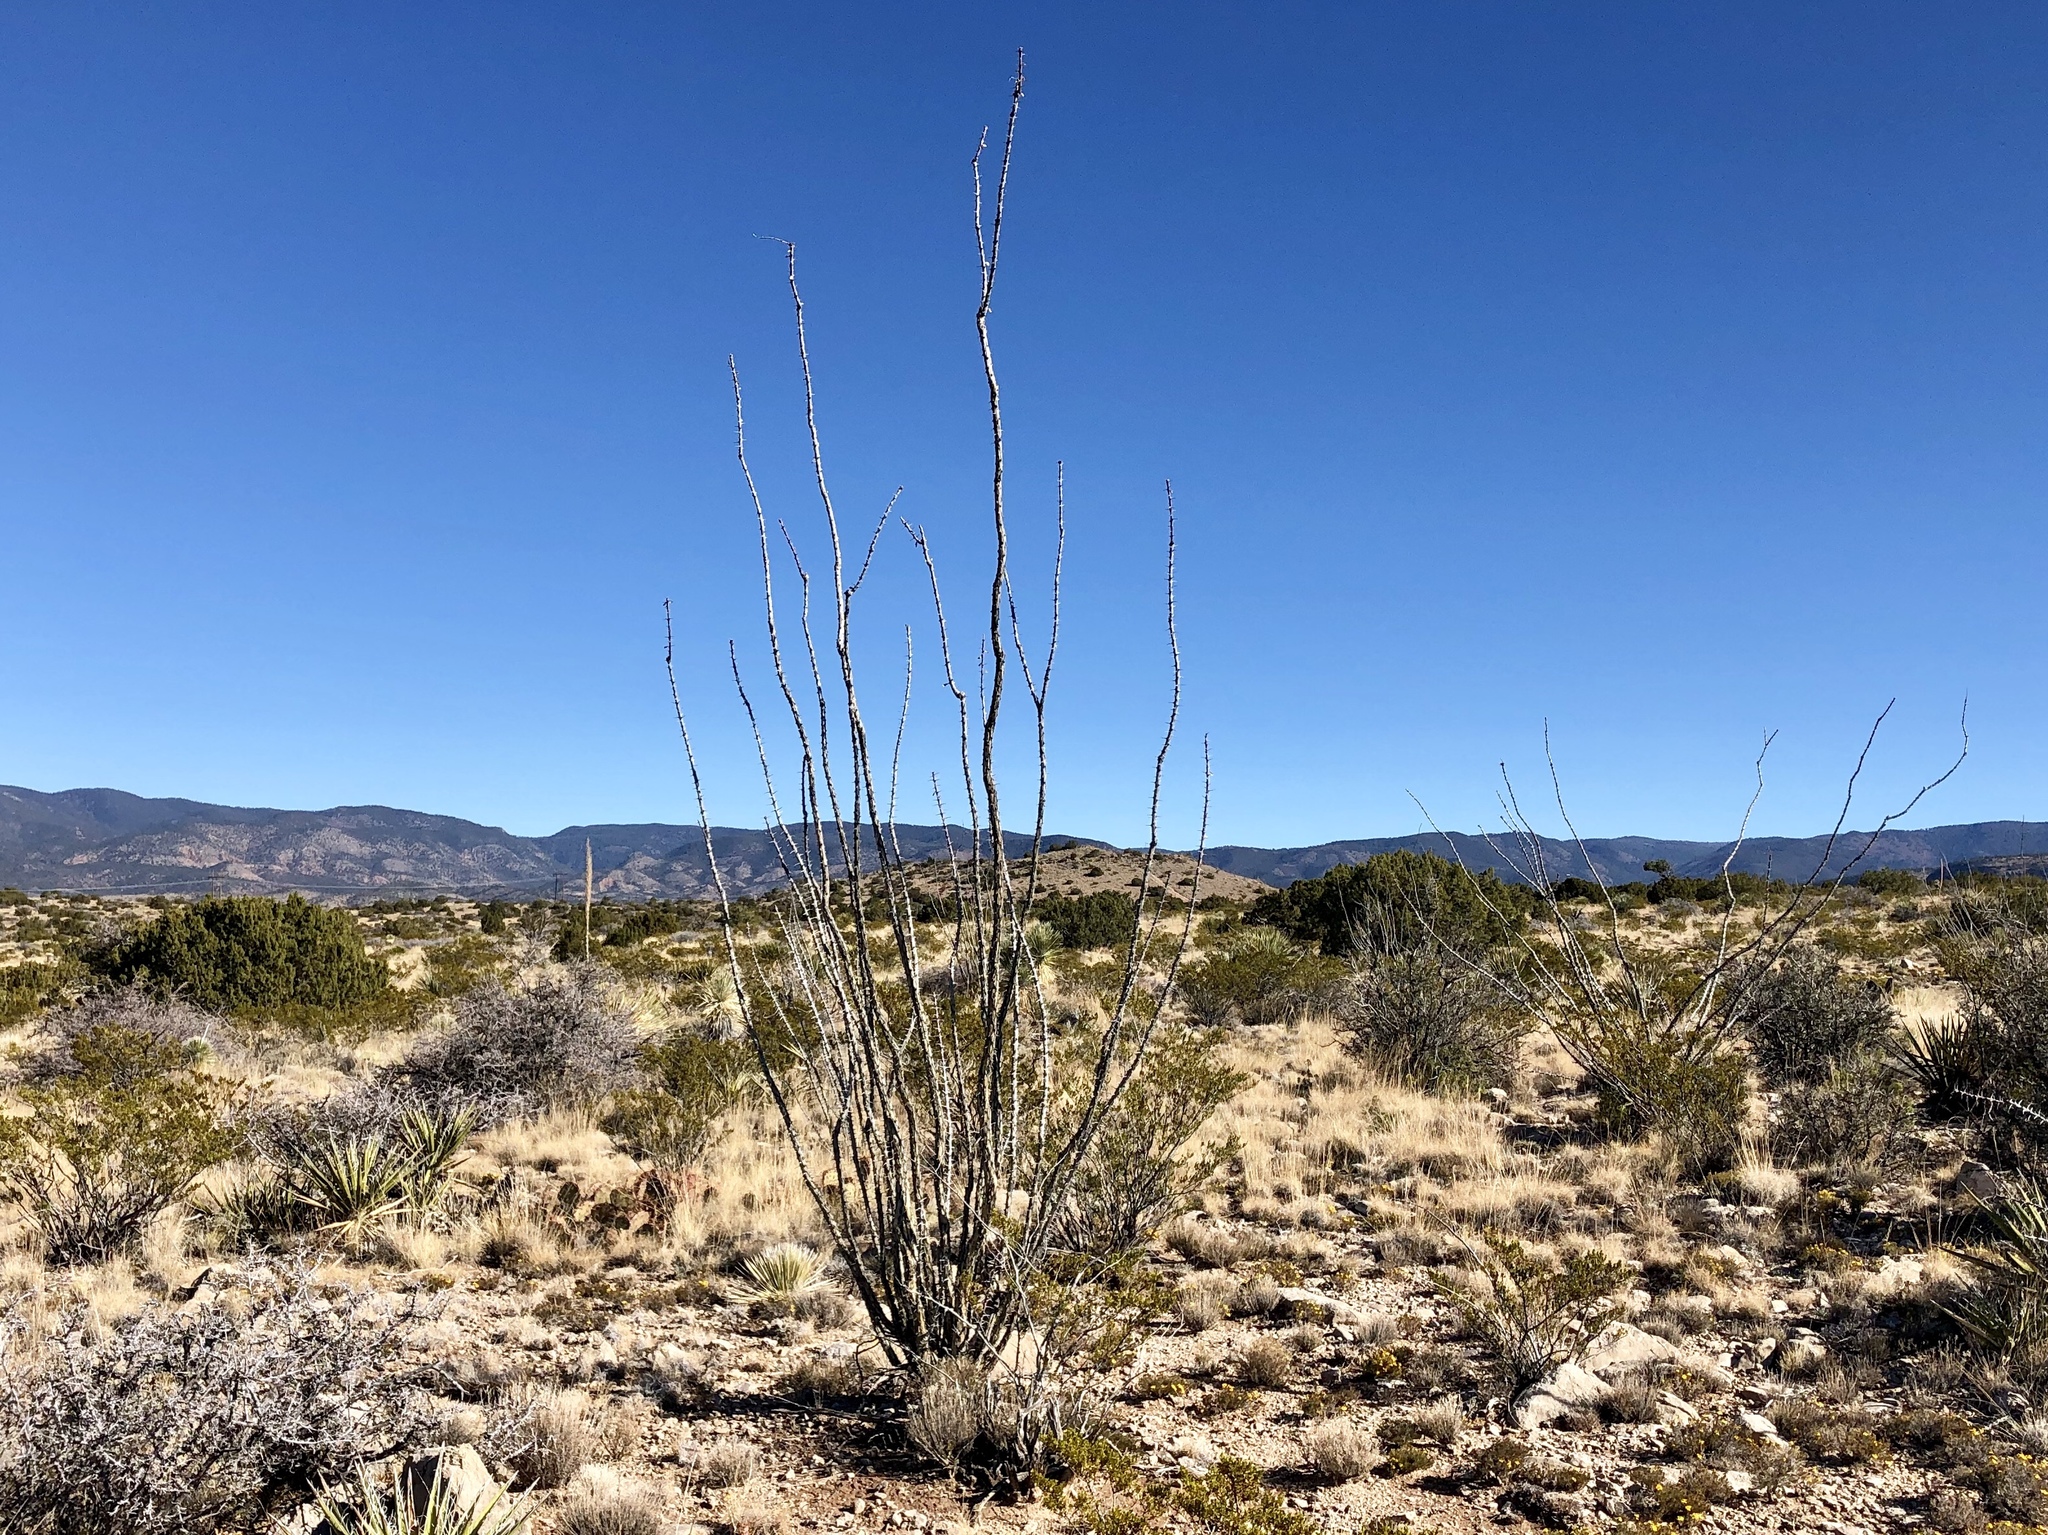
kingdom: Plantae
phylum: Tracheophyta
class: Magnoliopsida
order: Ericales
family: Fouquieriaceae
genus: Fouquieria
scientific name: Fouquieria splendens
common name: Vine-cactus
